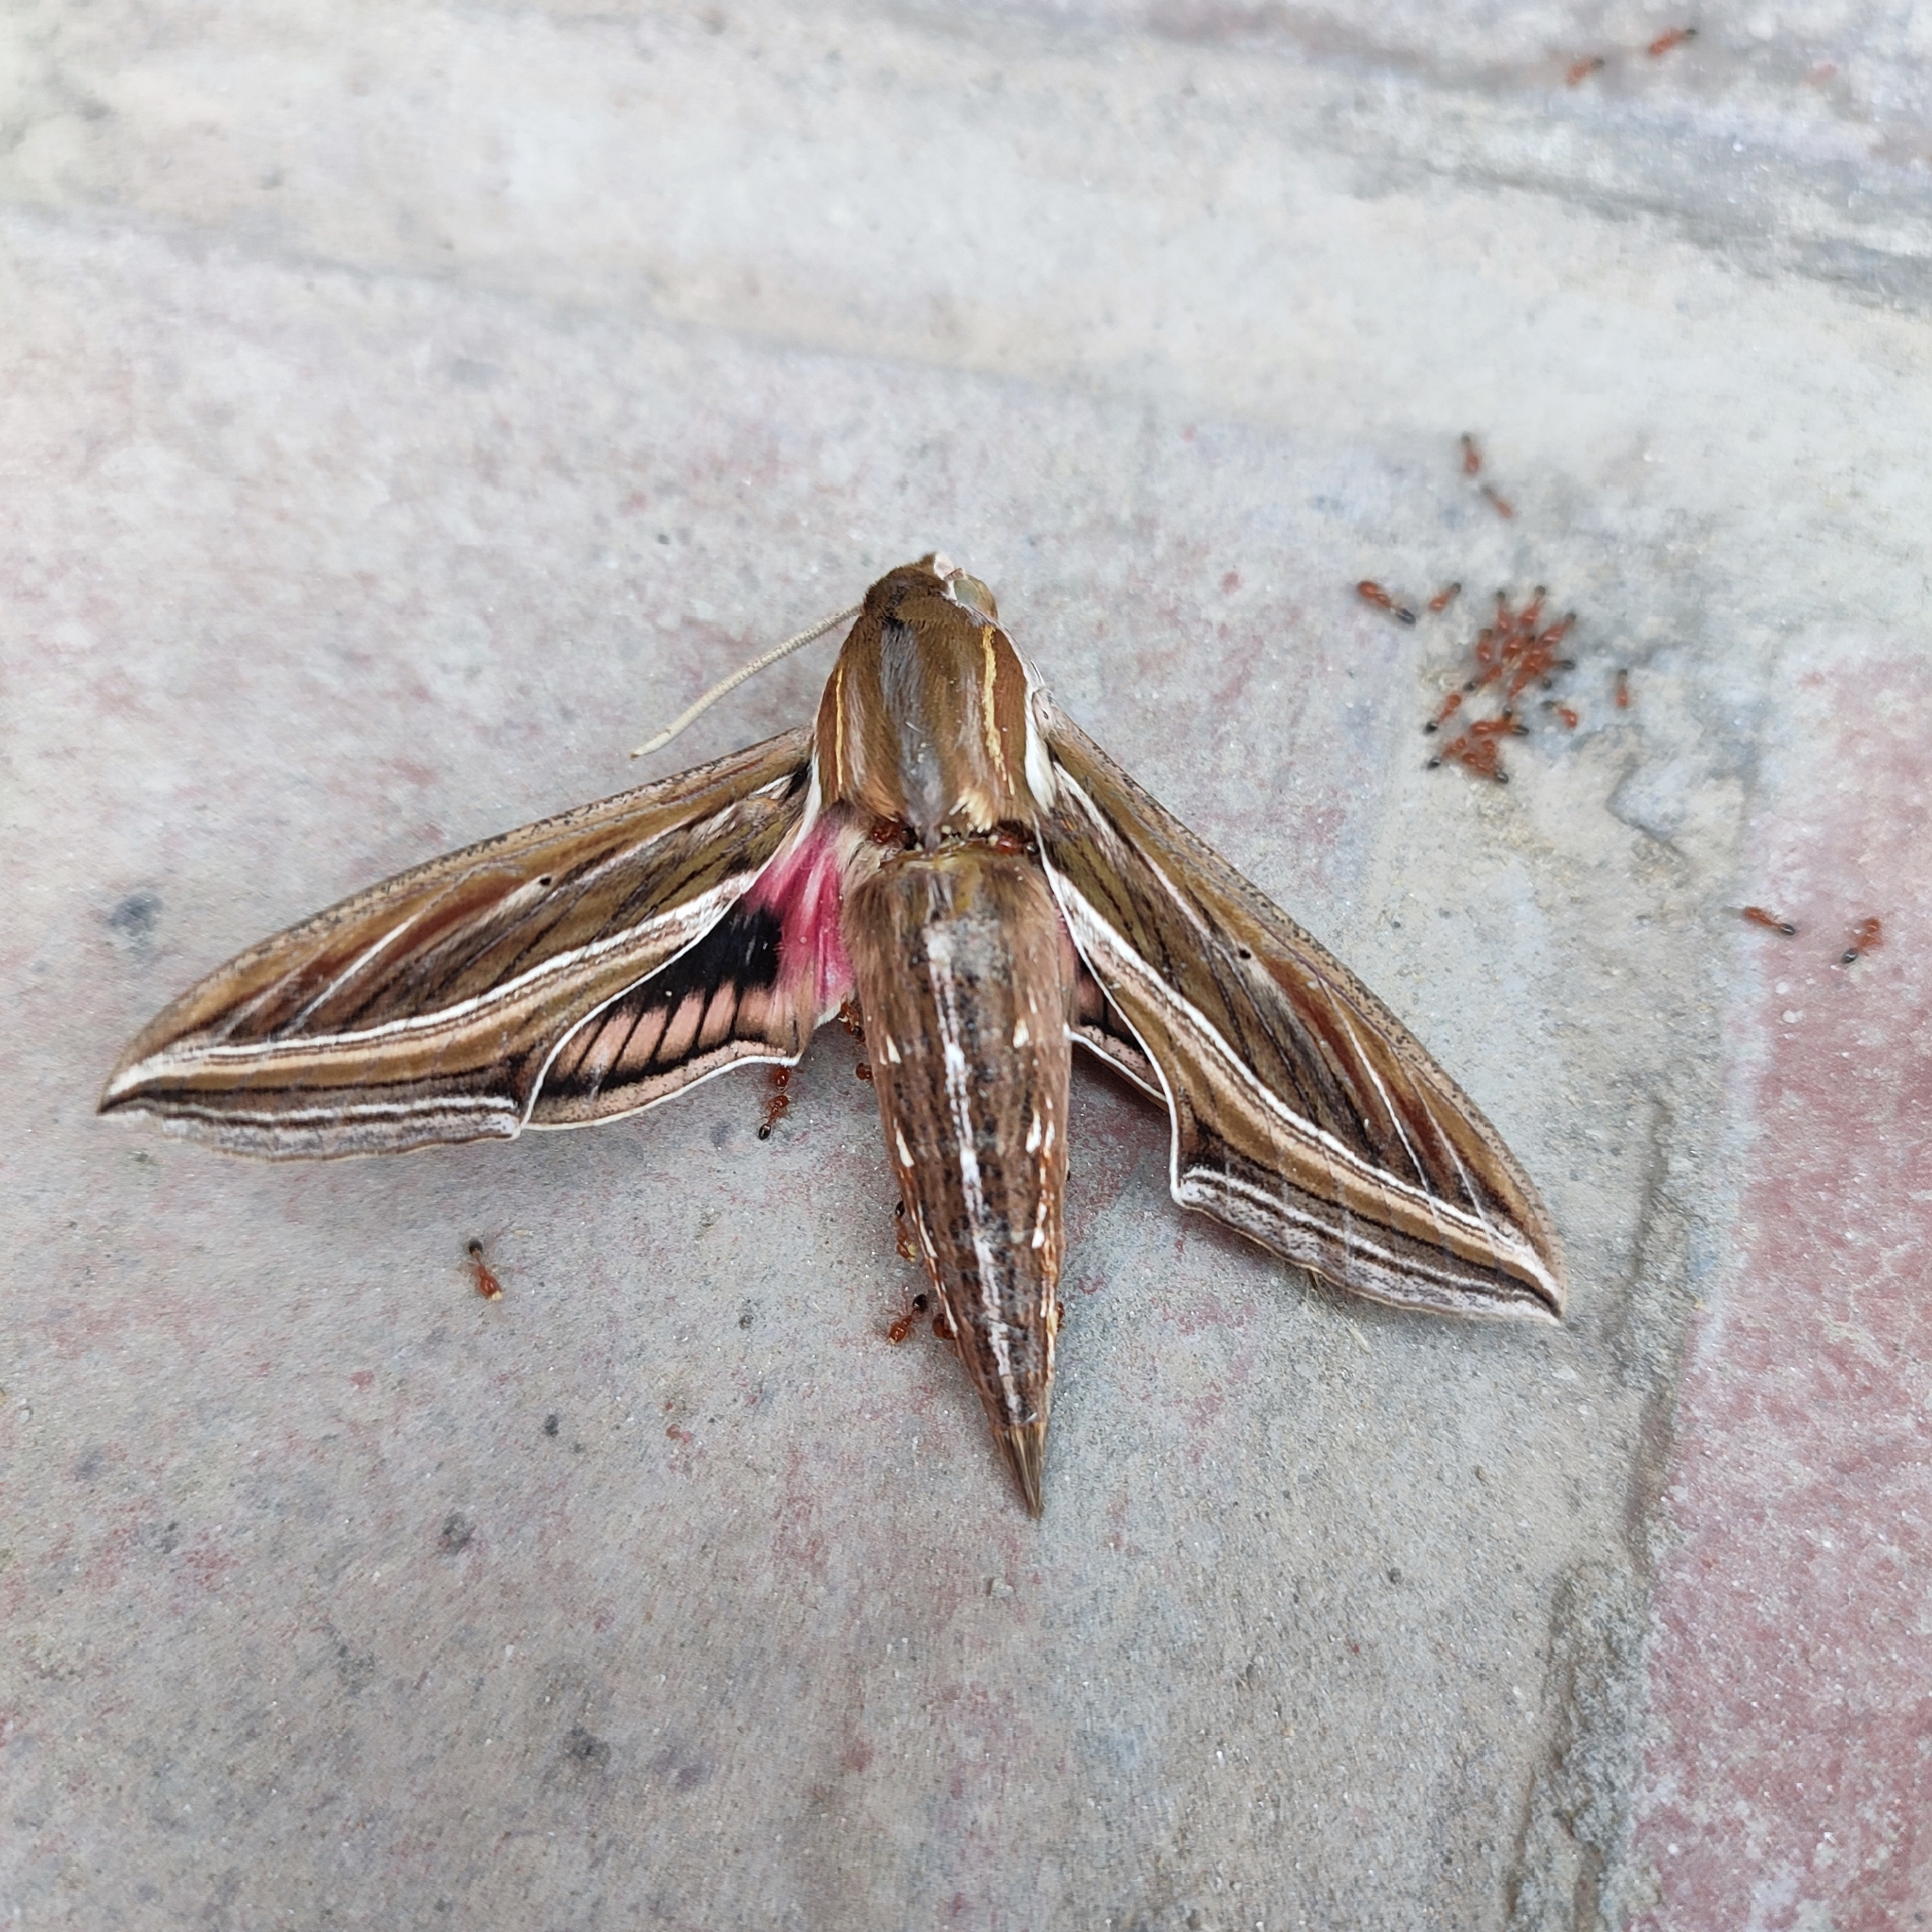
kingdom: Animalia
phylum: Arthropoda
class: Insecta
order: Lepidoptera
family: Sphingidae
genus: Hippotion
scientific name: Hippotion celerio
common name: Silver-striped hawk-moth
